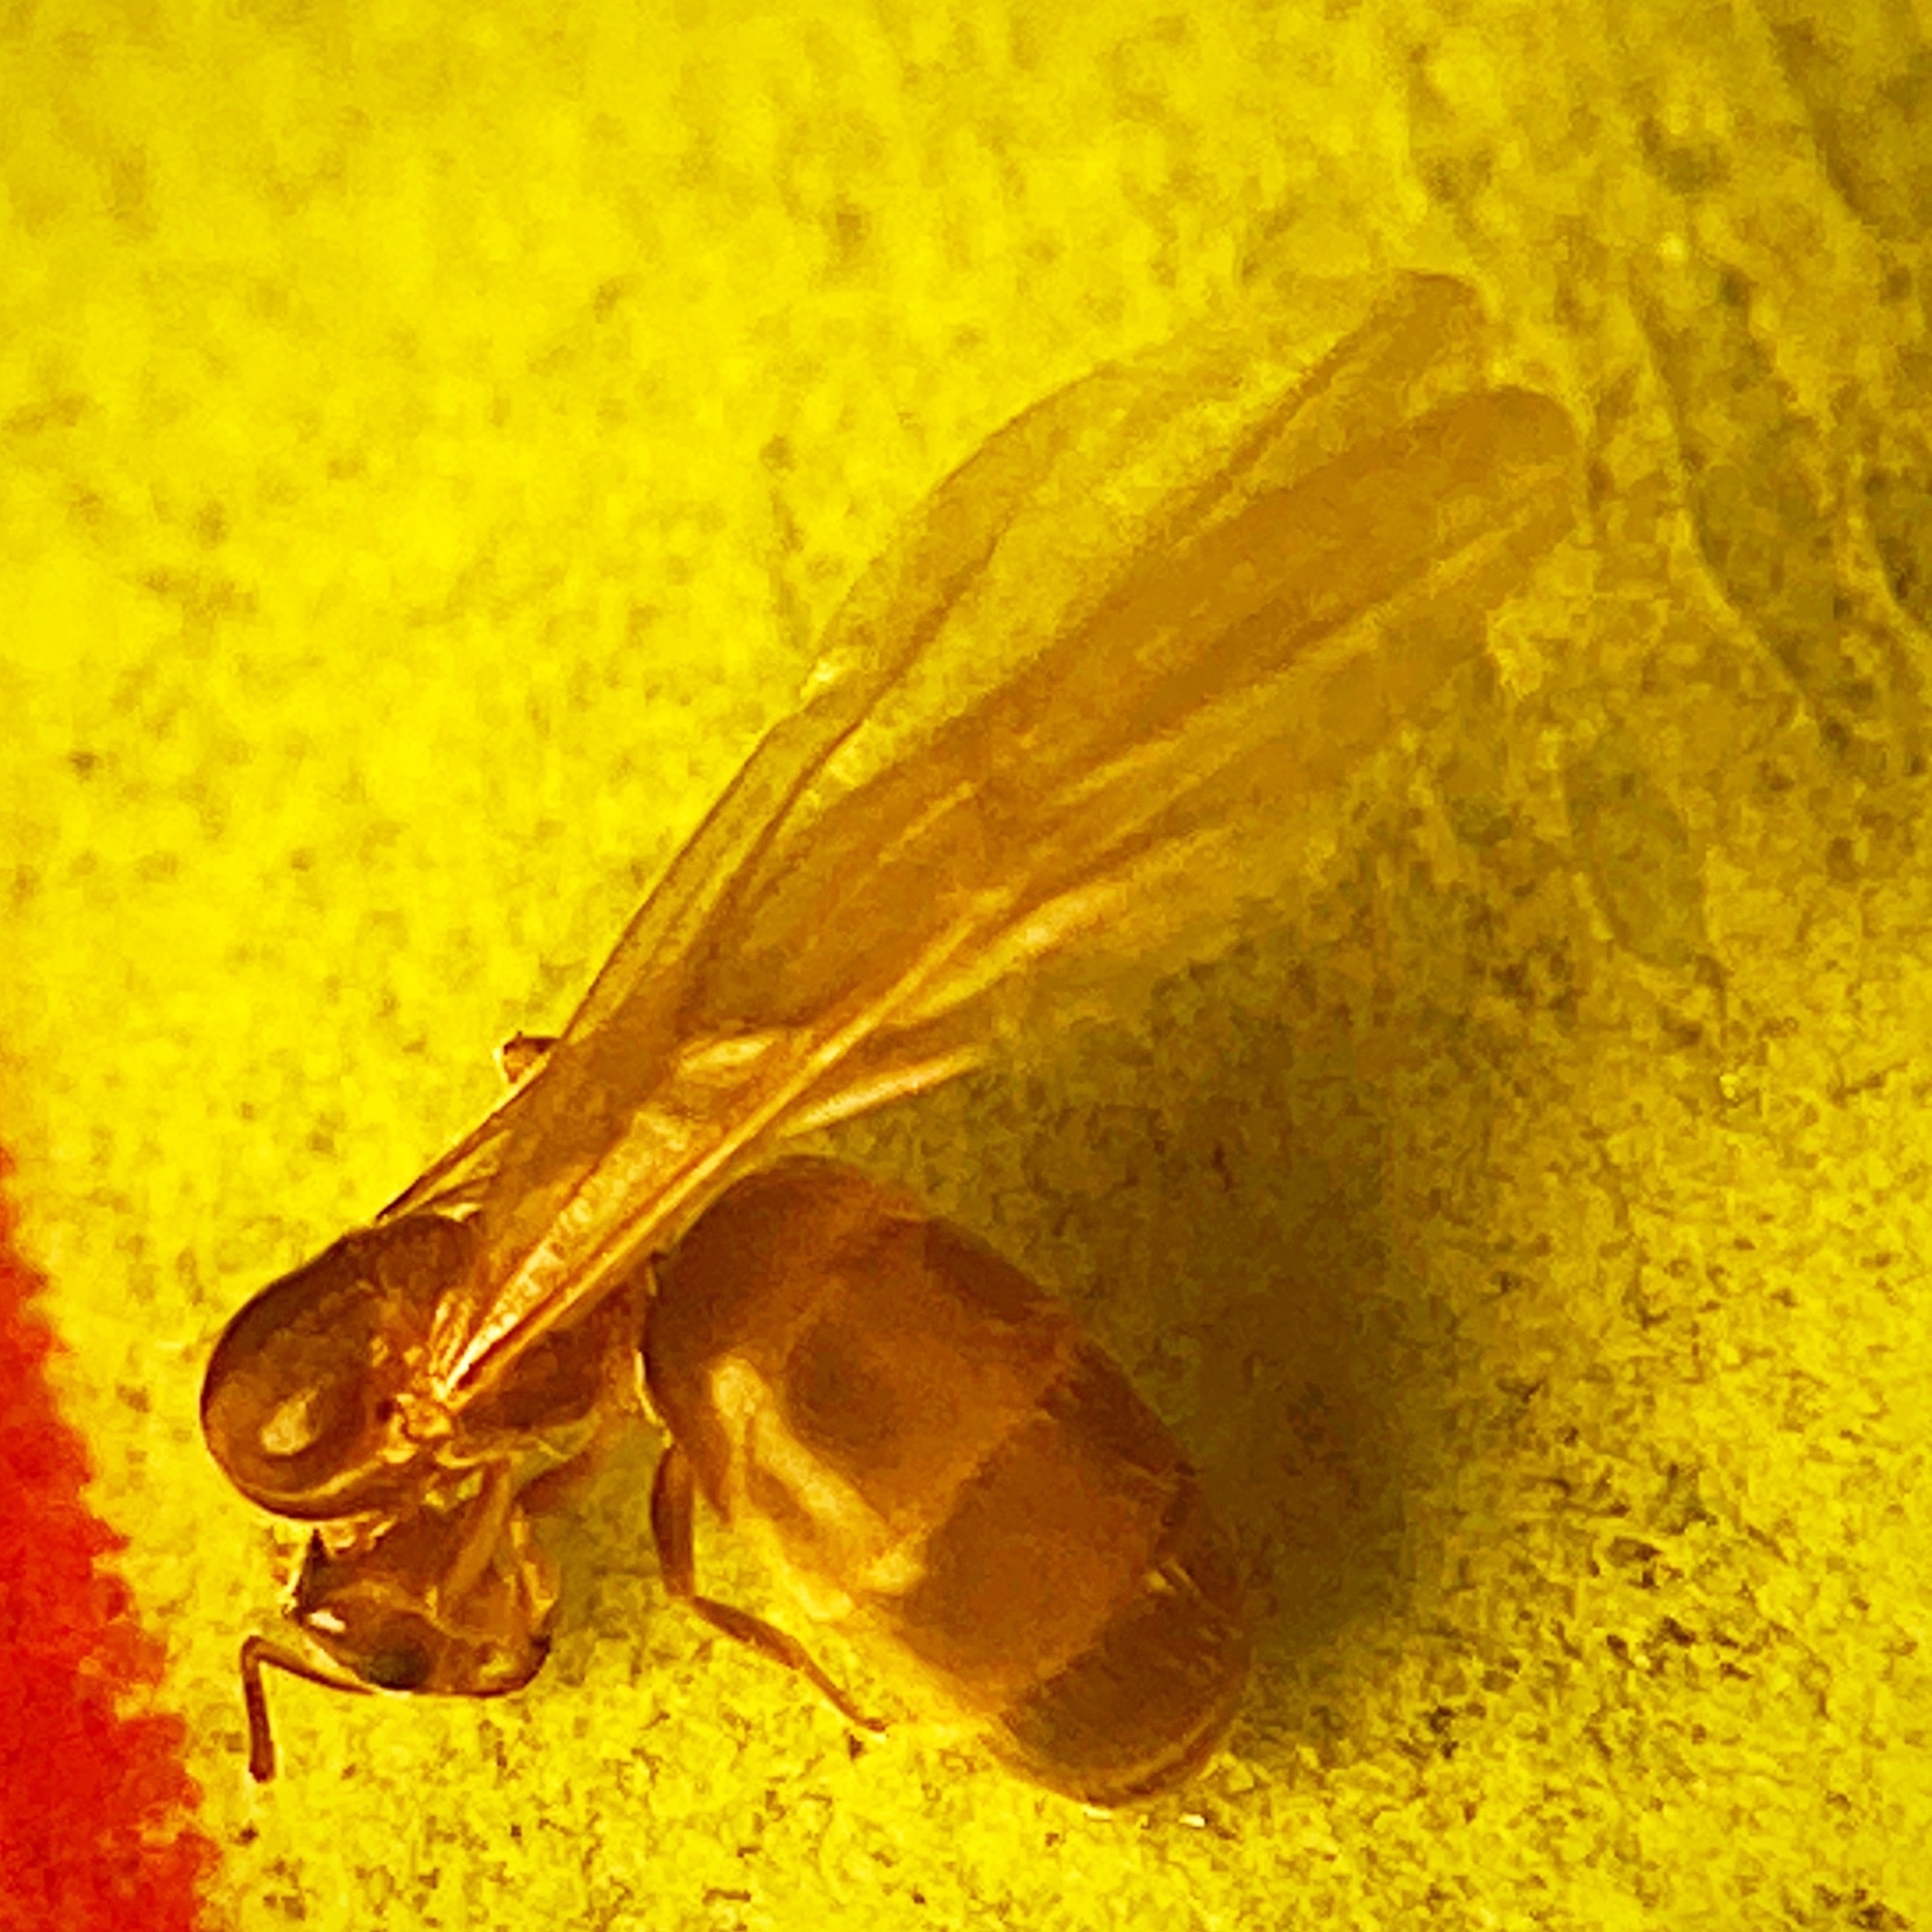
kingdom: Animalia
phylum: Arthropoda
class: Insecta
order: Hymenoptera
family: Formicidae
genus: Brachymyrmex
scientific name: Brachymyrmex depilis
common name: Hairless rover ant
